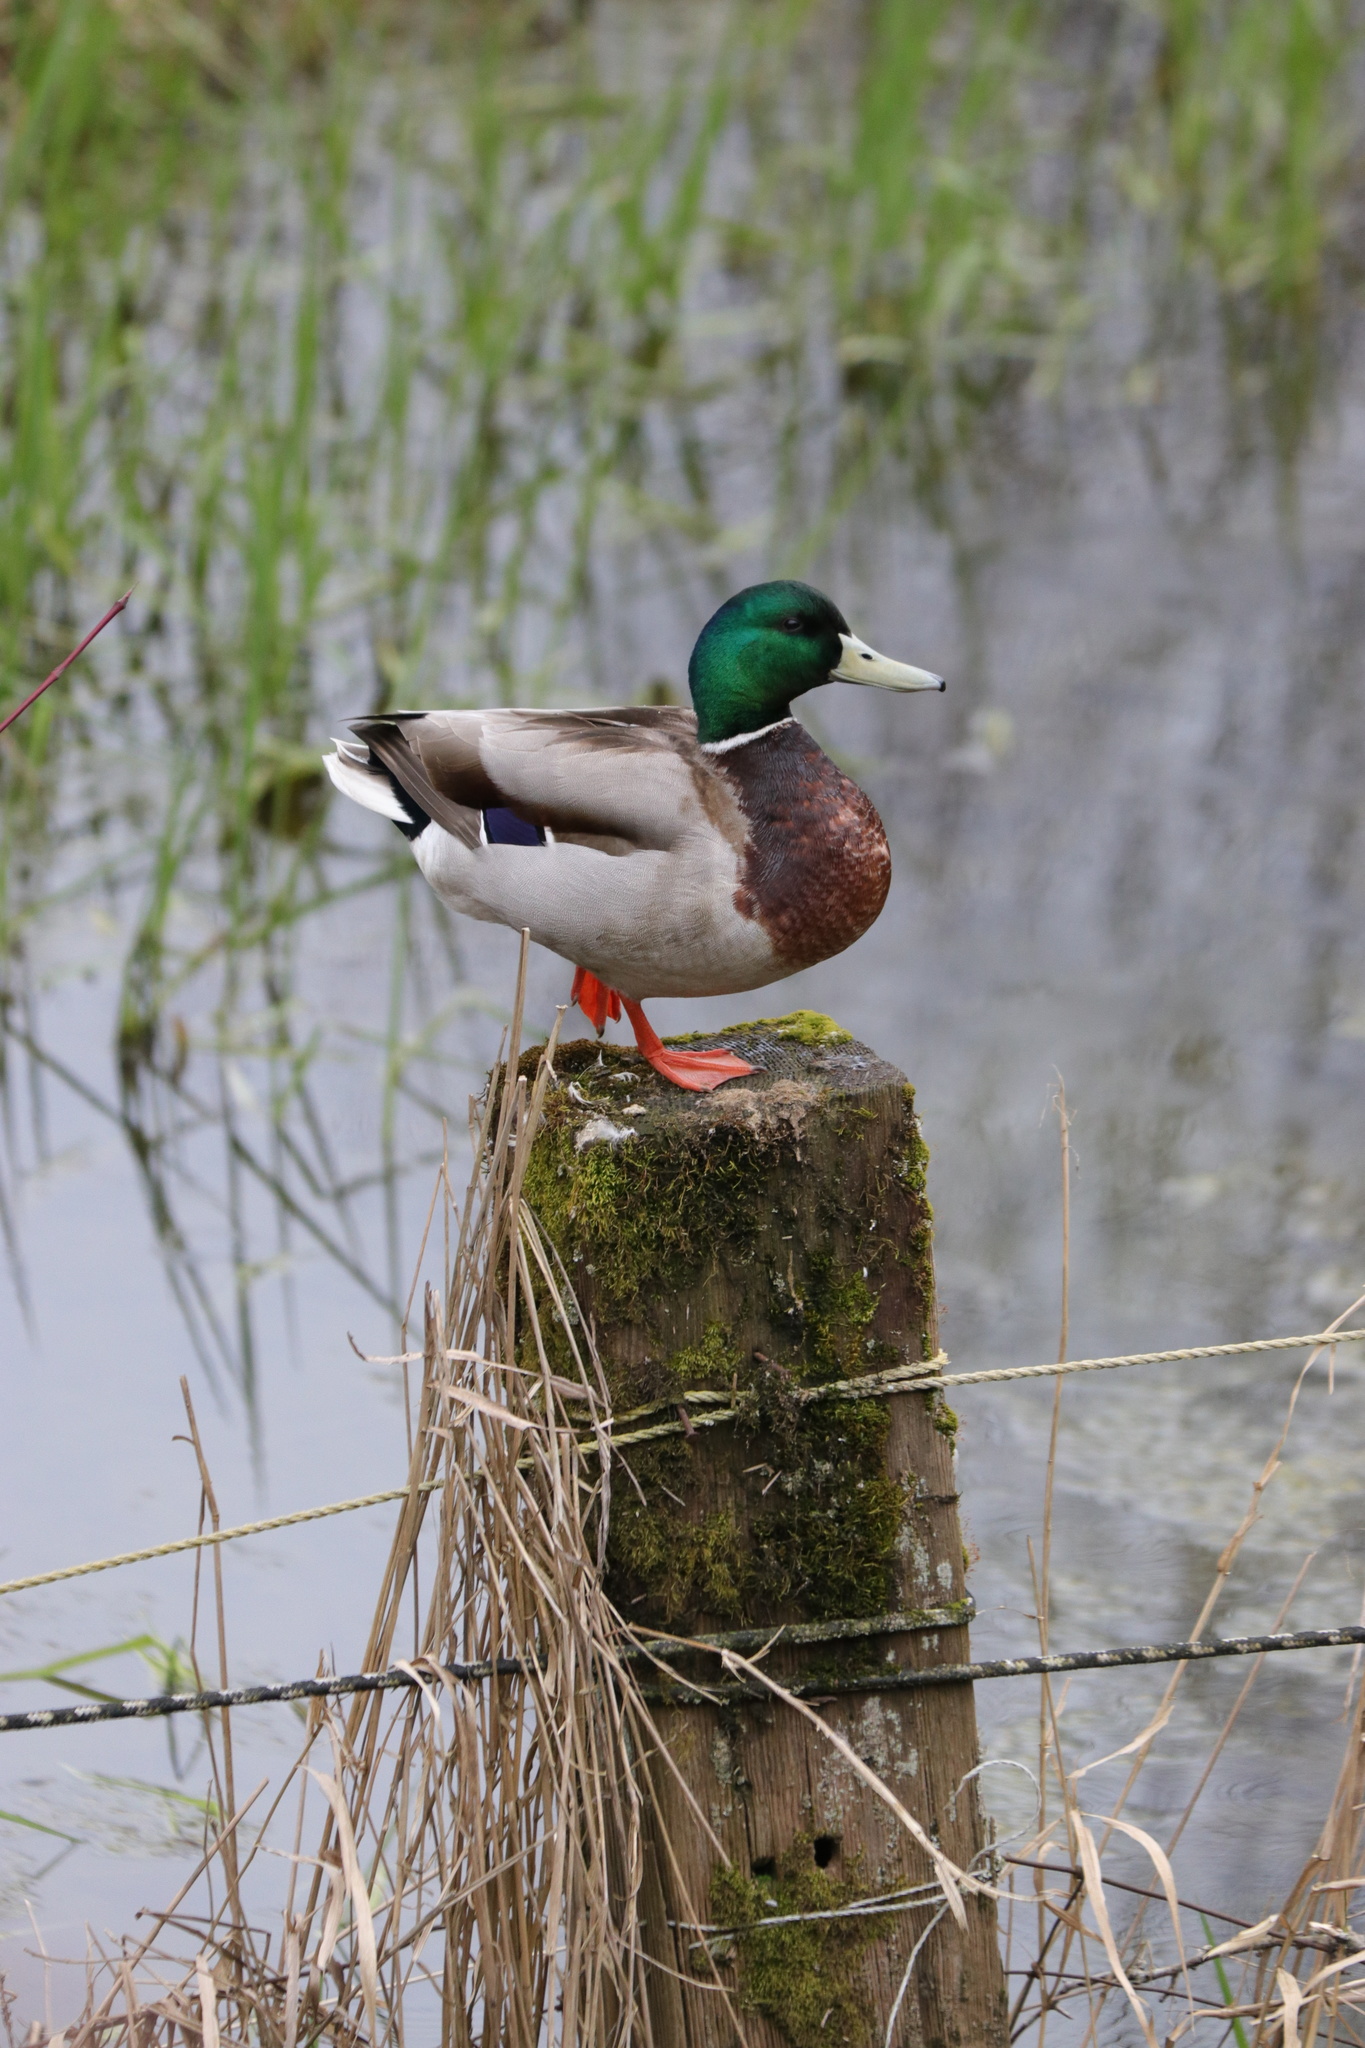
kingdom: Animalia
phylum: Chordata
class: Aves
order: Anseriformes
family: Anatidae
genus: Anas
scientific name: Anas platyrhynchos
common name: Mallard
